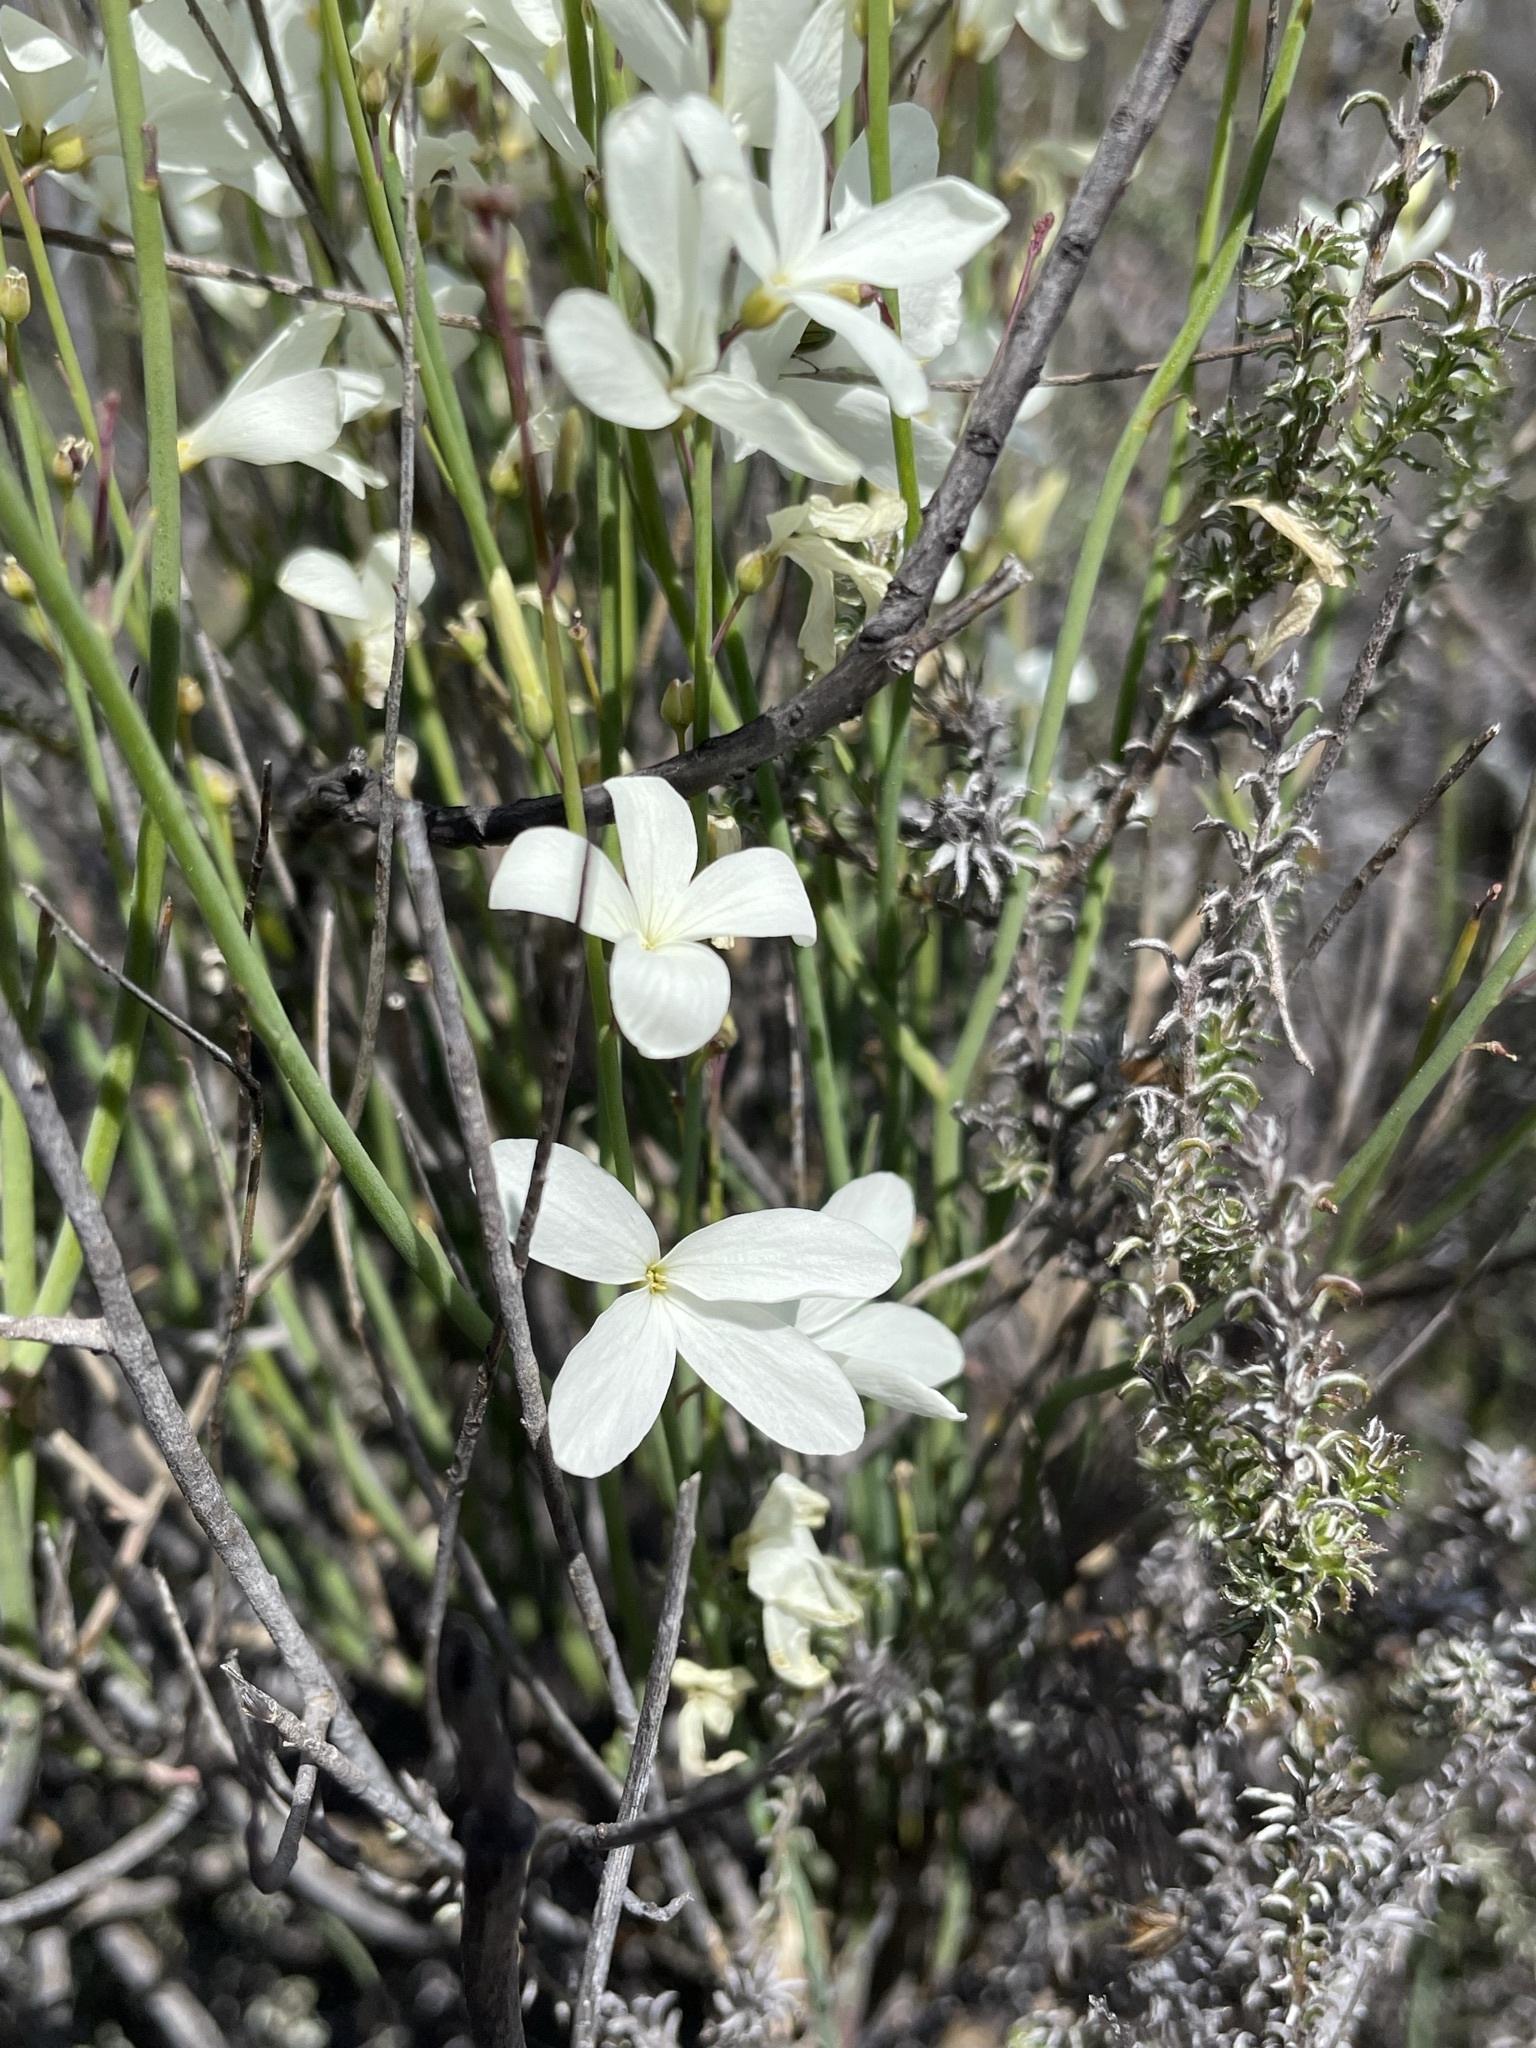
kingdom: Plantae
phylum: Tracheophyta
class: Magnoliopsida
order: Brassicales
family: Brassicaceae
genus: Heliophila
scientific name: Heliophila juncea
